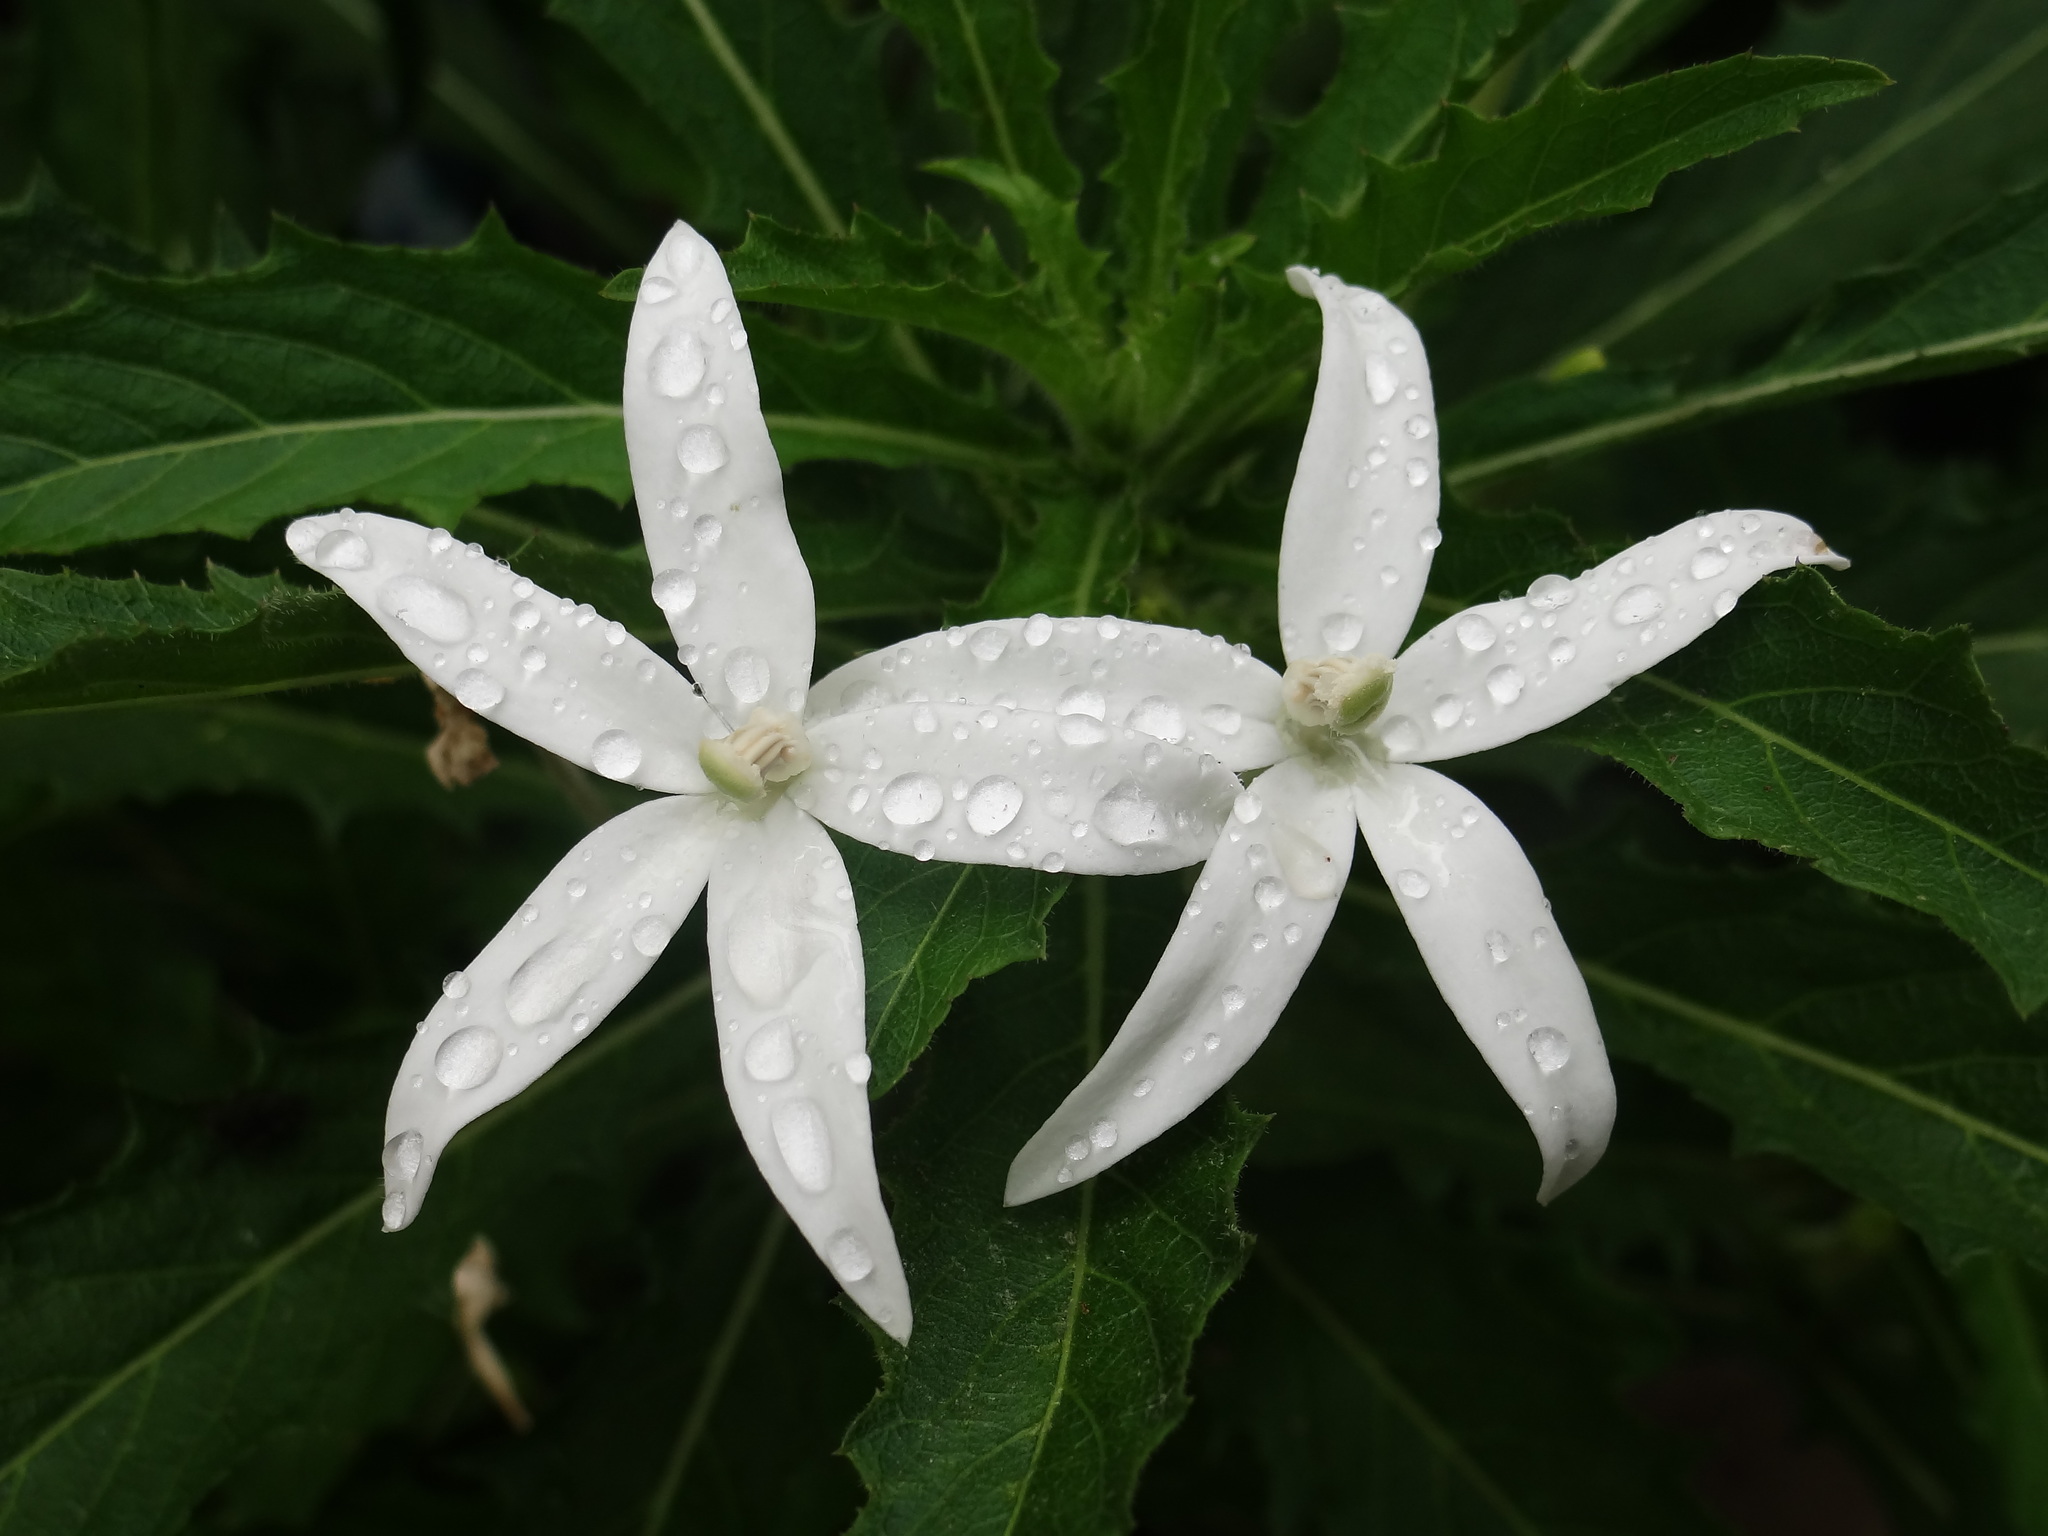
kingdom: Plantae
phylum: Tracheophyta
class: Magnoliopsida
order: Asterales
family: Campanulaceae
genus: Hippobroma
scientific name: Hippobroma longiflora
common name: Madamfate
